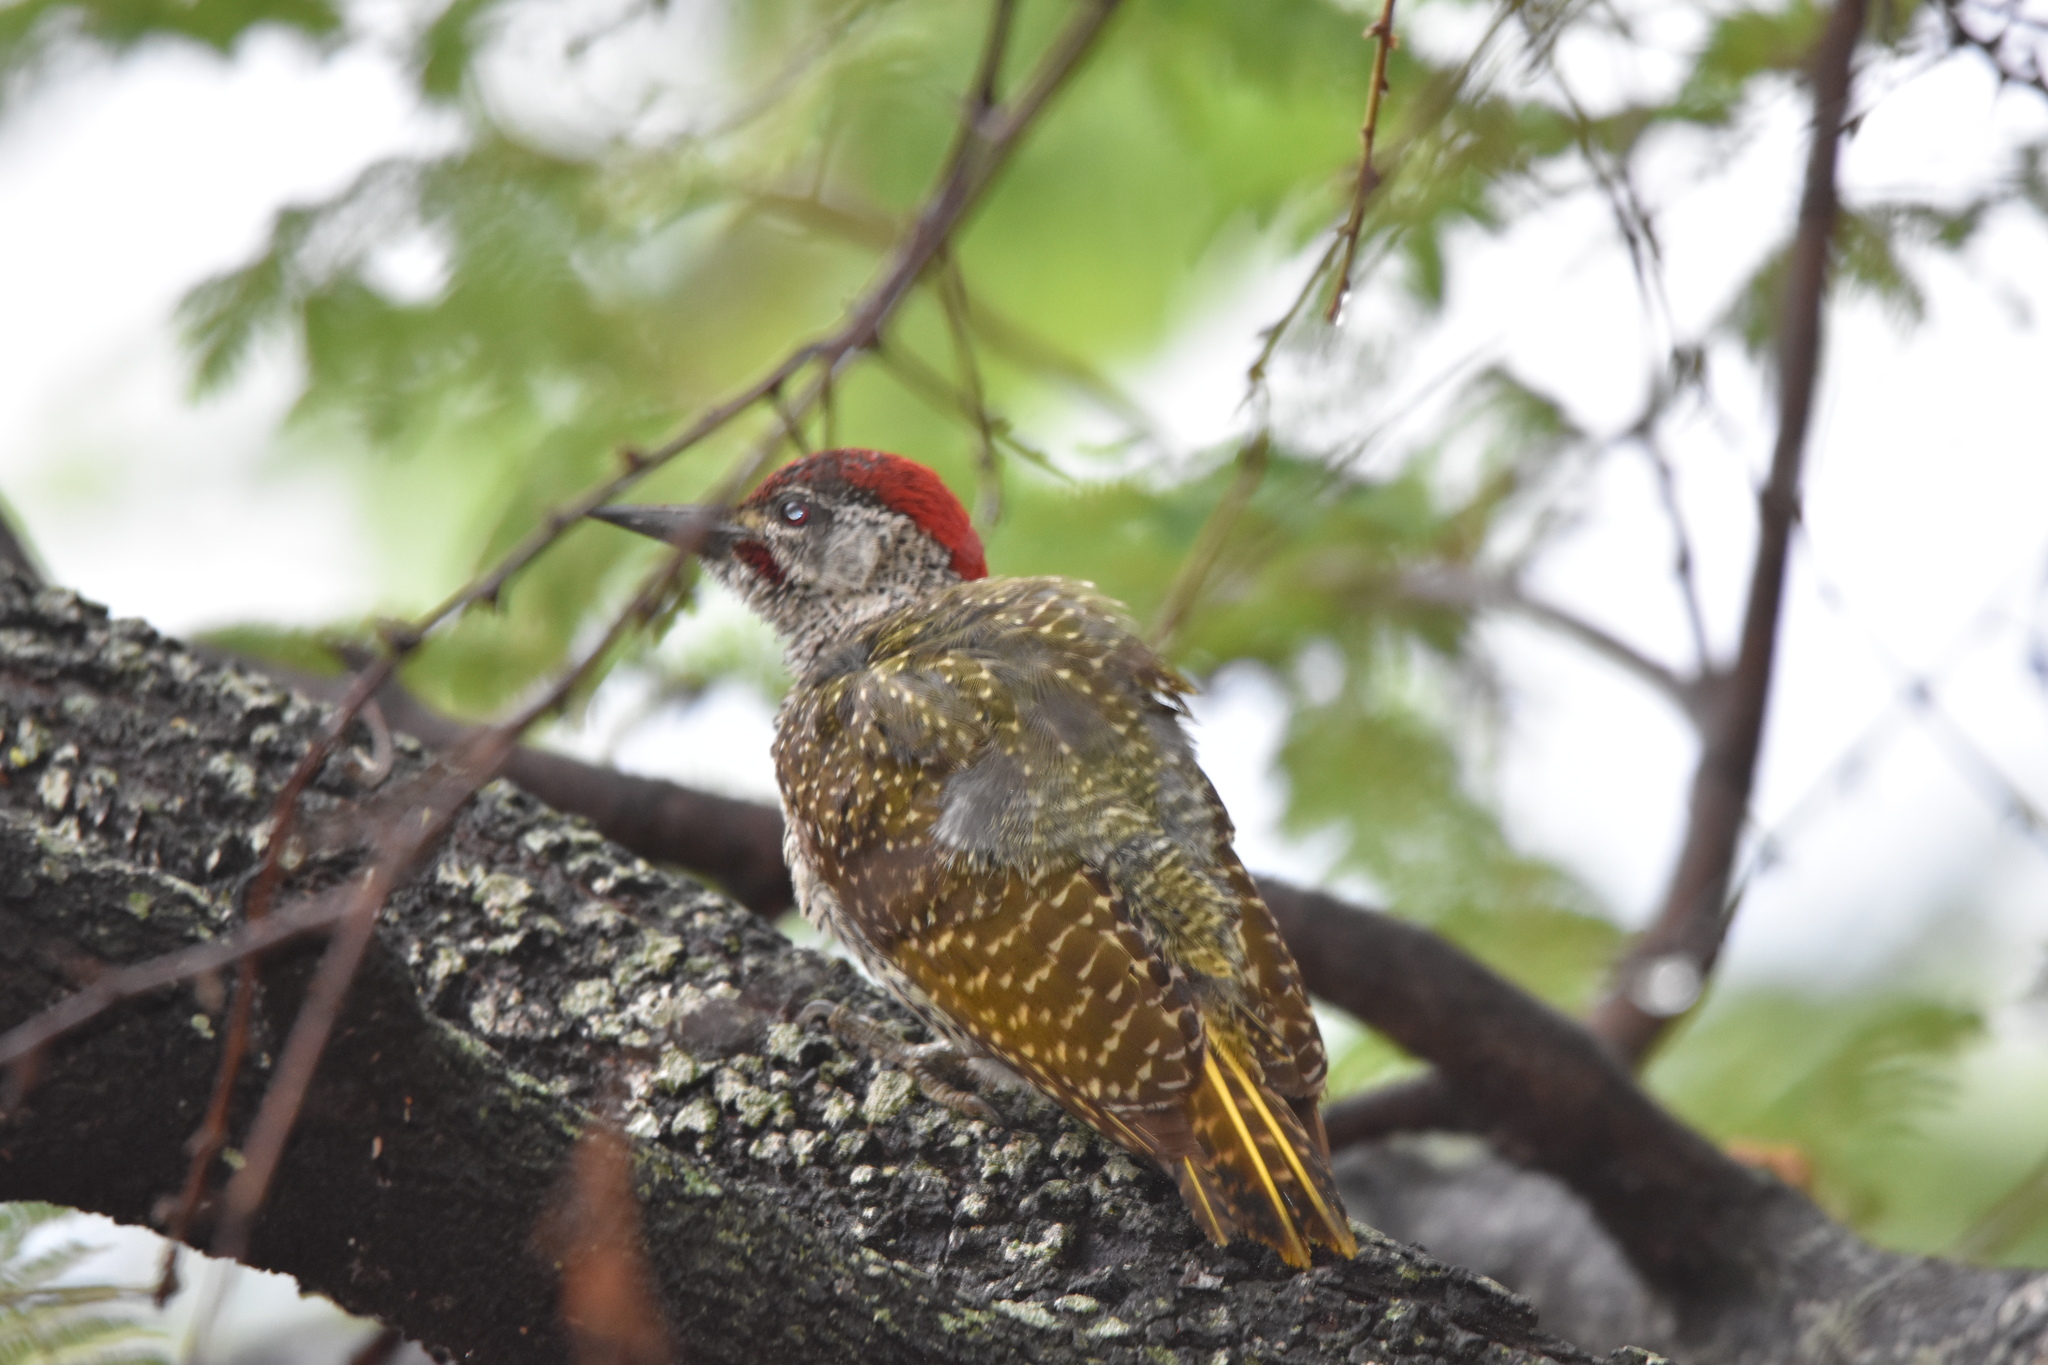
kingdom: Animalia
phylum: Chordata
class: Aves
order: Piciformes
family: Picidae
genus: Campethera
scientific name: Campethera abingoni
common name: Golden-tailed woodpecker
